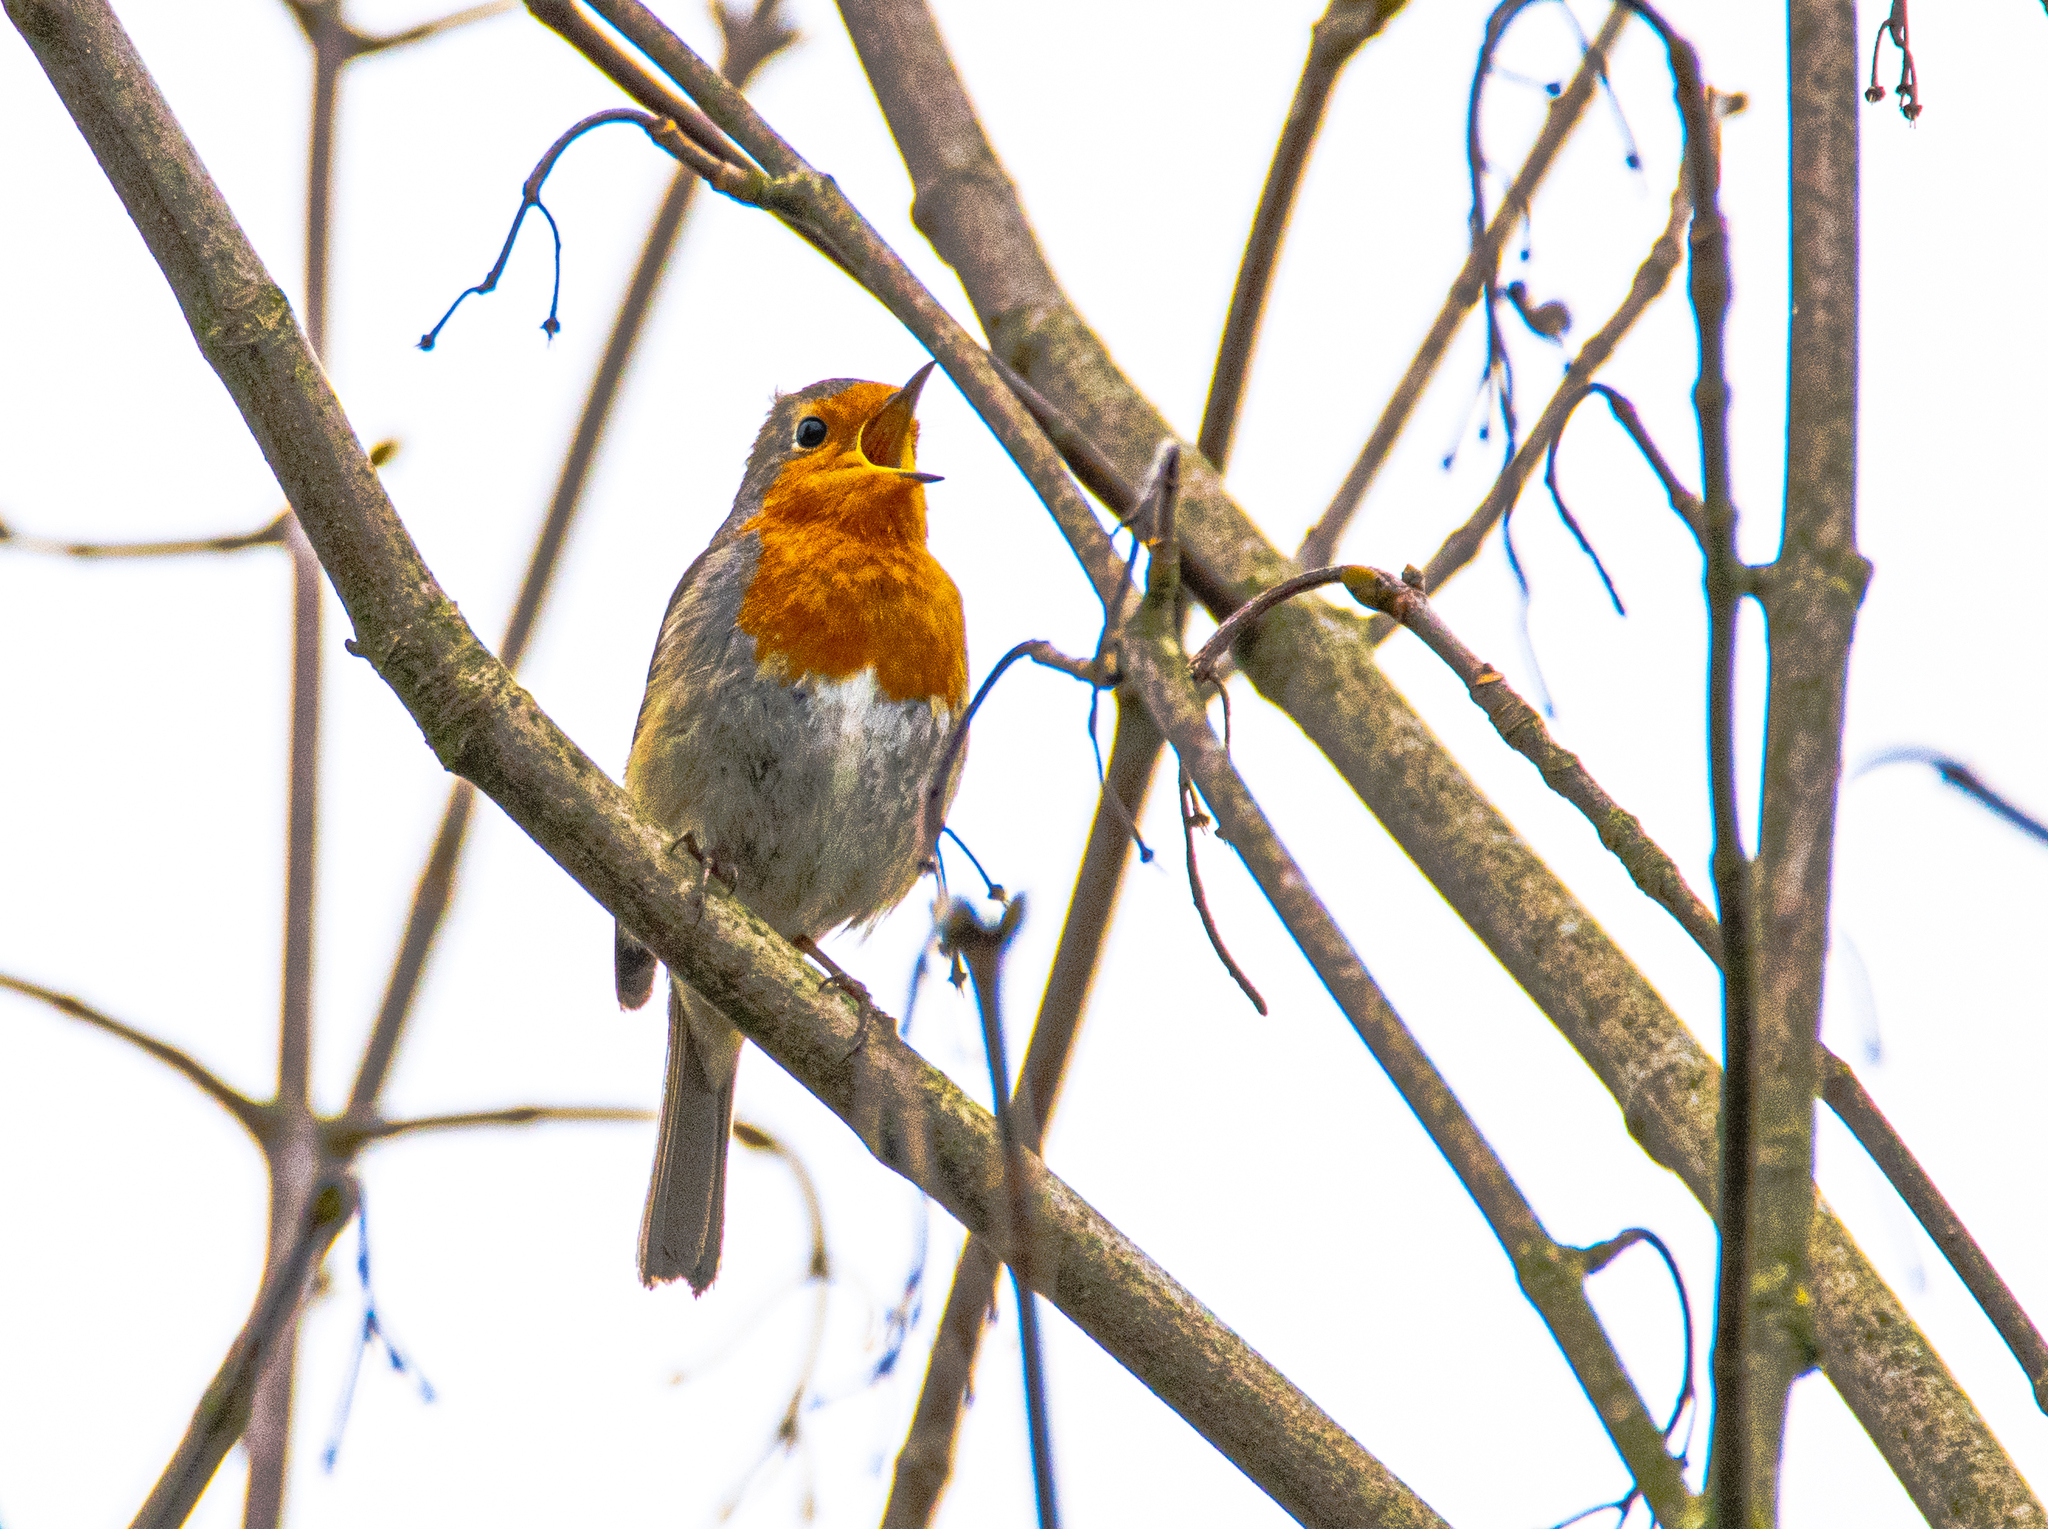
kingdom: Animalia
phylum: Chordata
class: Aves
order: Passeriformes
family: Muscicapidae
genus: Erithacus
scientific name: Erithacus rubecula
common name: European robin
